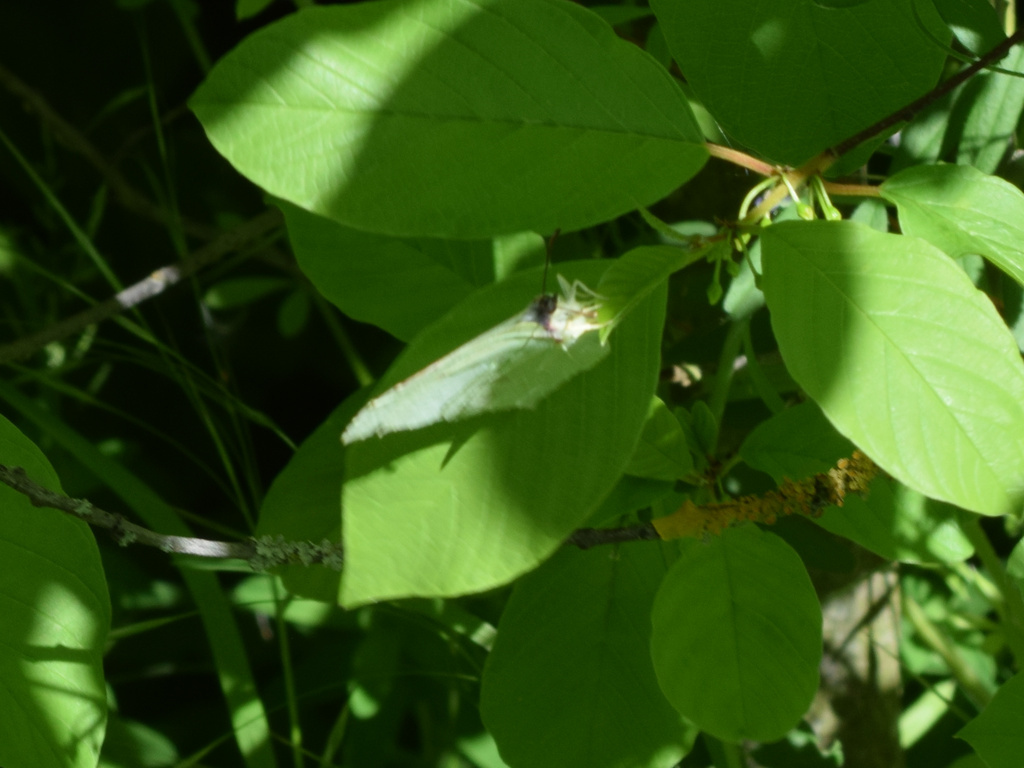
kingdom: Animalia
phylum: Arthropoda
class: Insecta
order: Lepidoptera
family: Pieridae
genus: Gonepteryx
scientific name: Gonepteryx rhamni
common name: Brimstone
